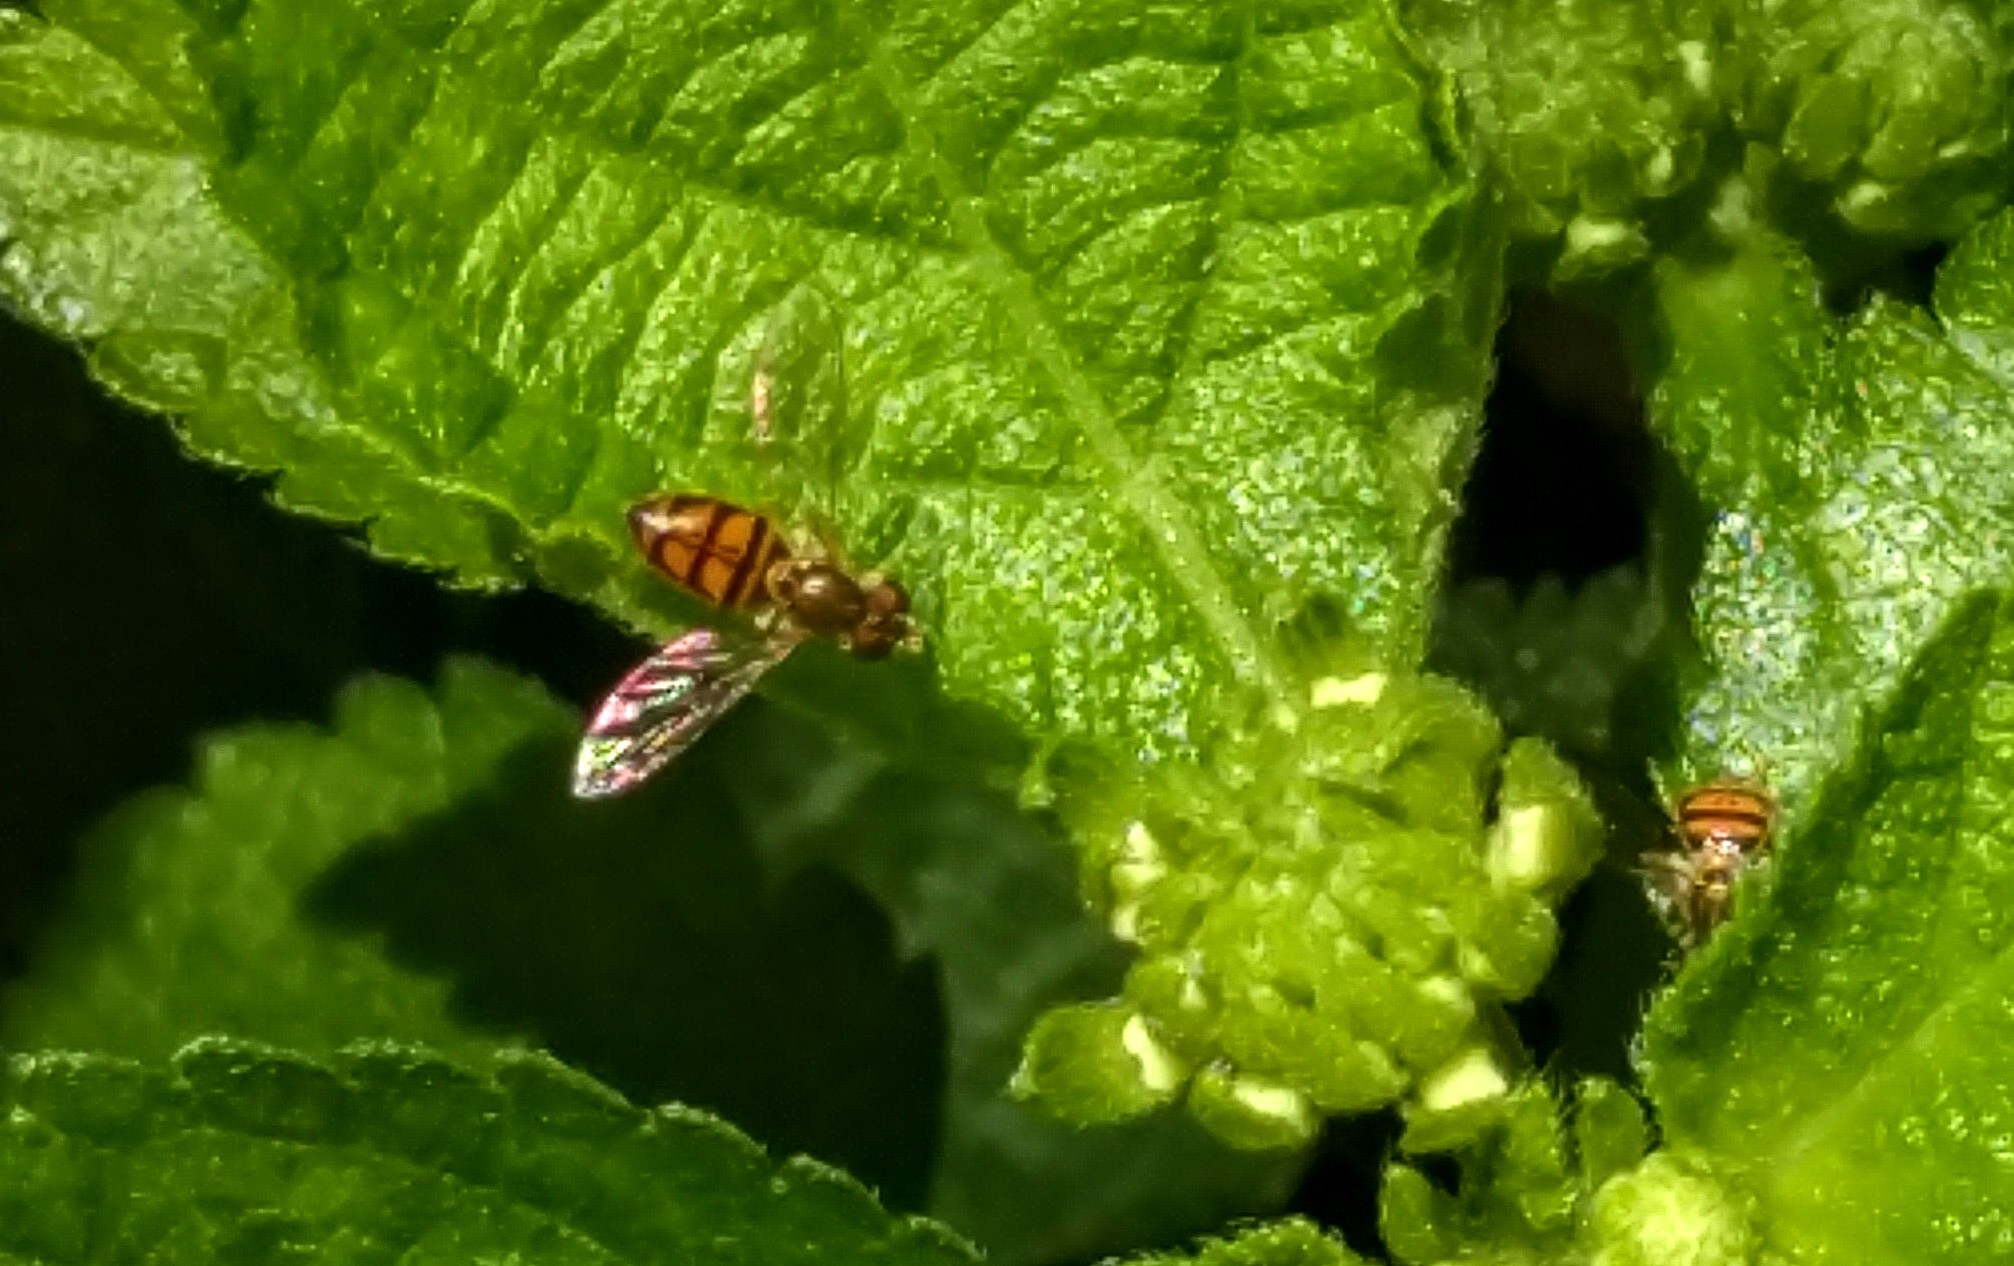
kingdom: Animalia
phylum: Arthropoda
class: Insecta
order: Diptera
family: Syrphidae
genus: Toxomerus
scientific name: Toxomerus marginatus
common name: Syrphid fly
